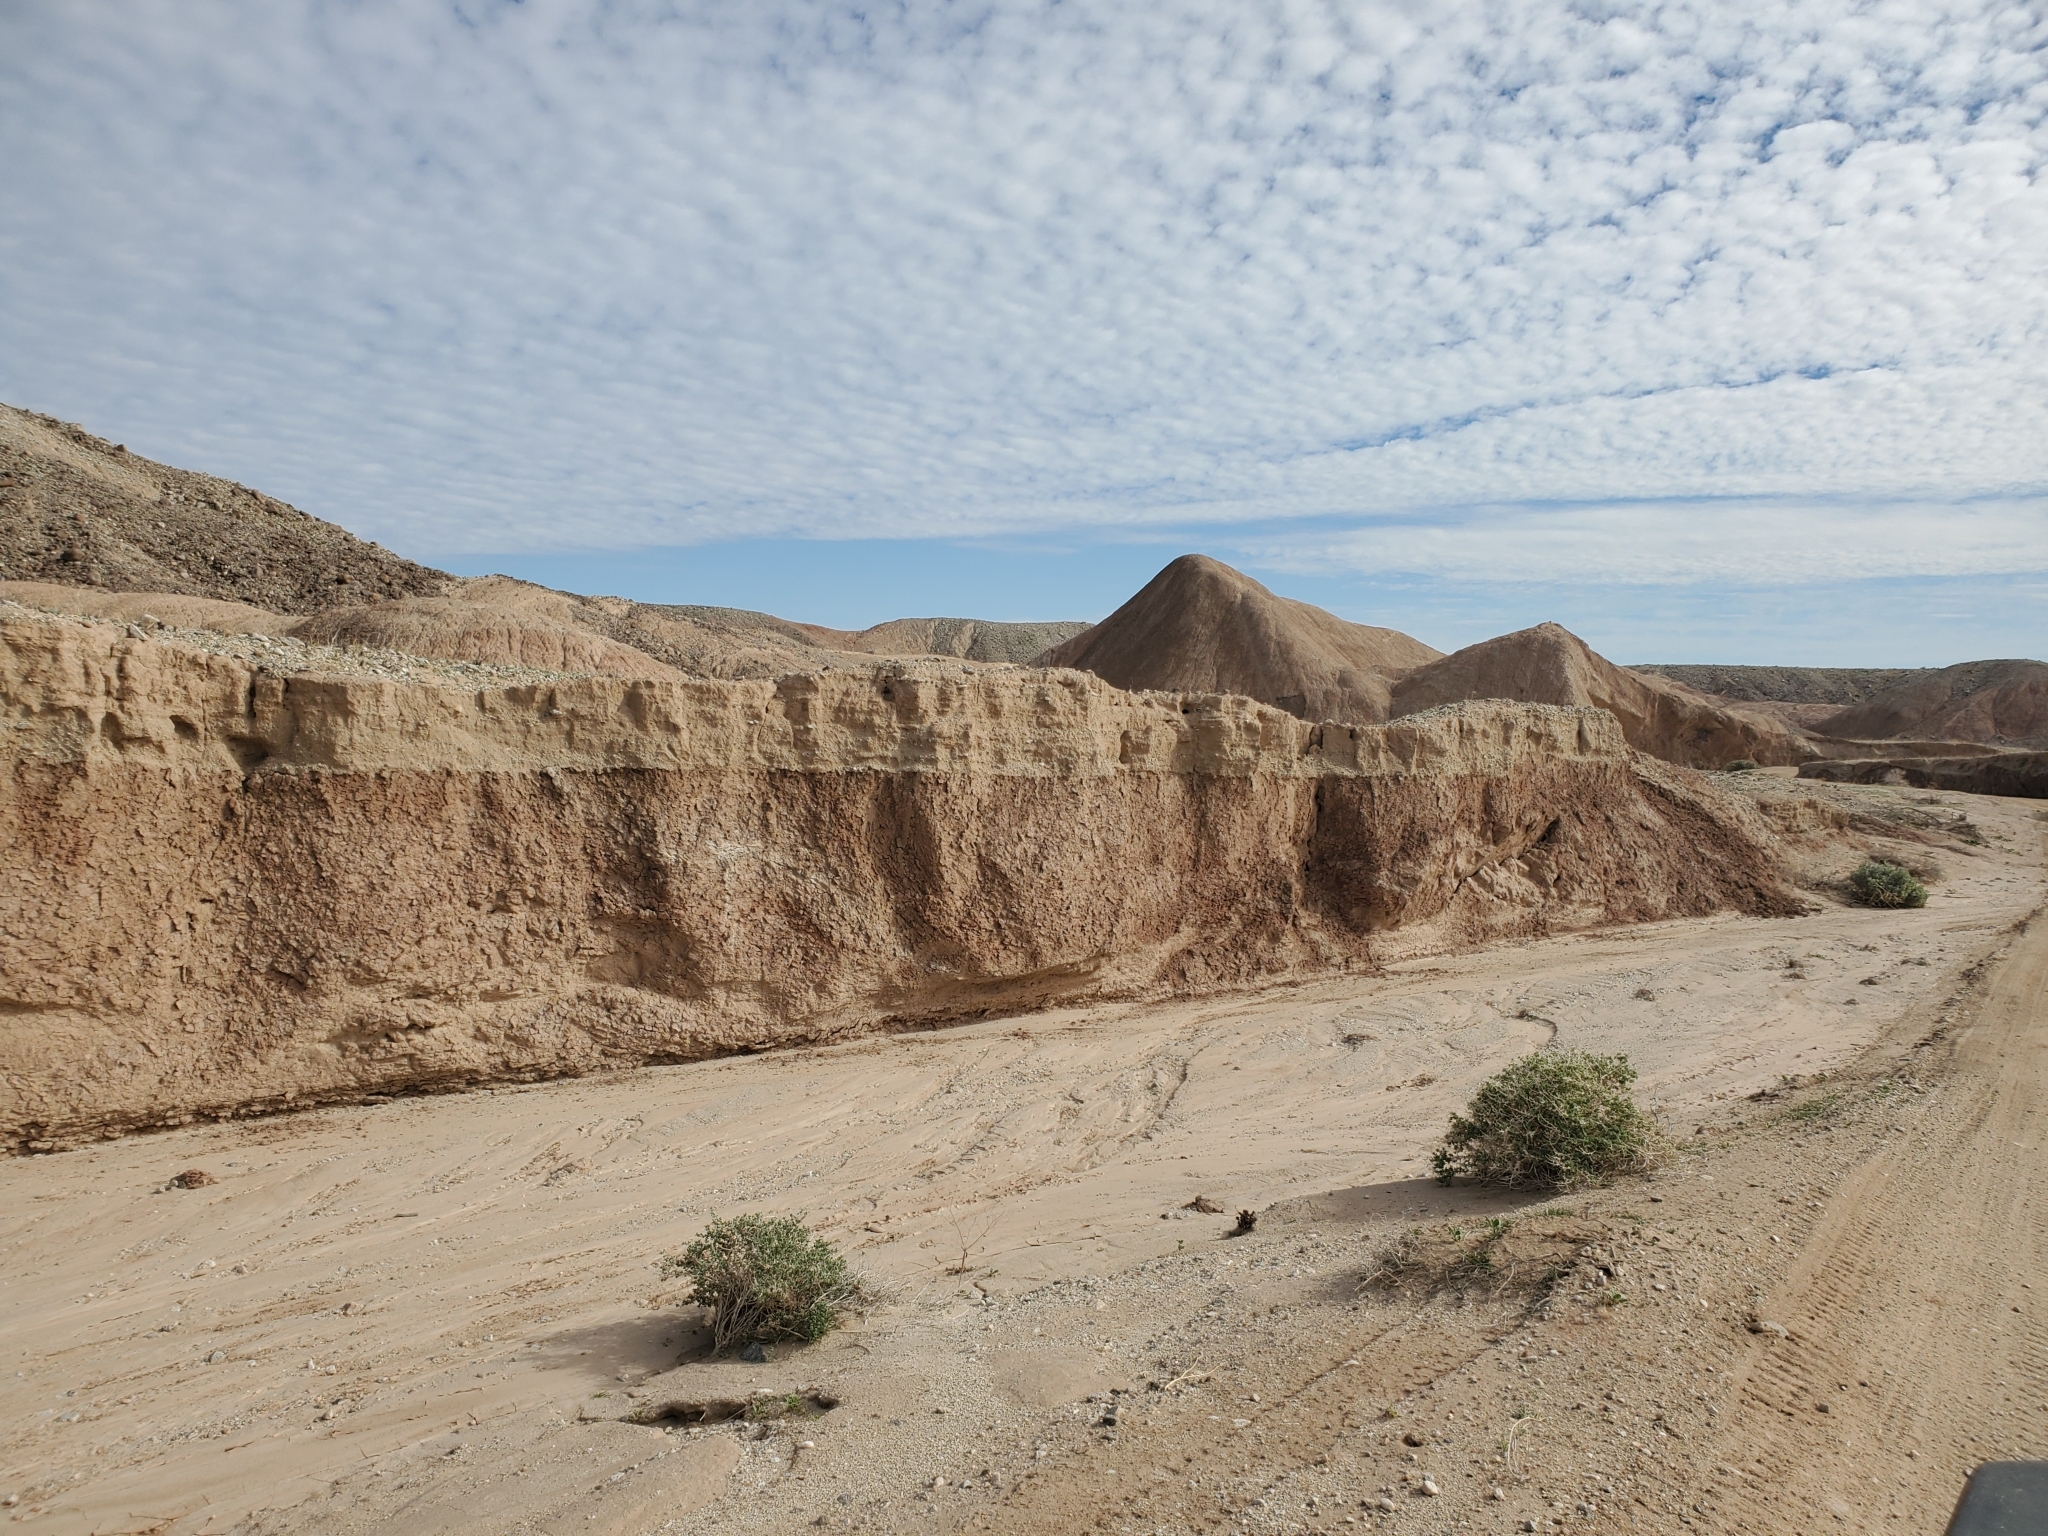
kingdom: Plantae
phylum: Tracheophyta
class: Magnoliopsida
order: Asterales
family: Asteraceae
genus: Encelia
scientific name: Encelia farinosa
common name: Brittlebush
